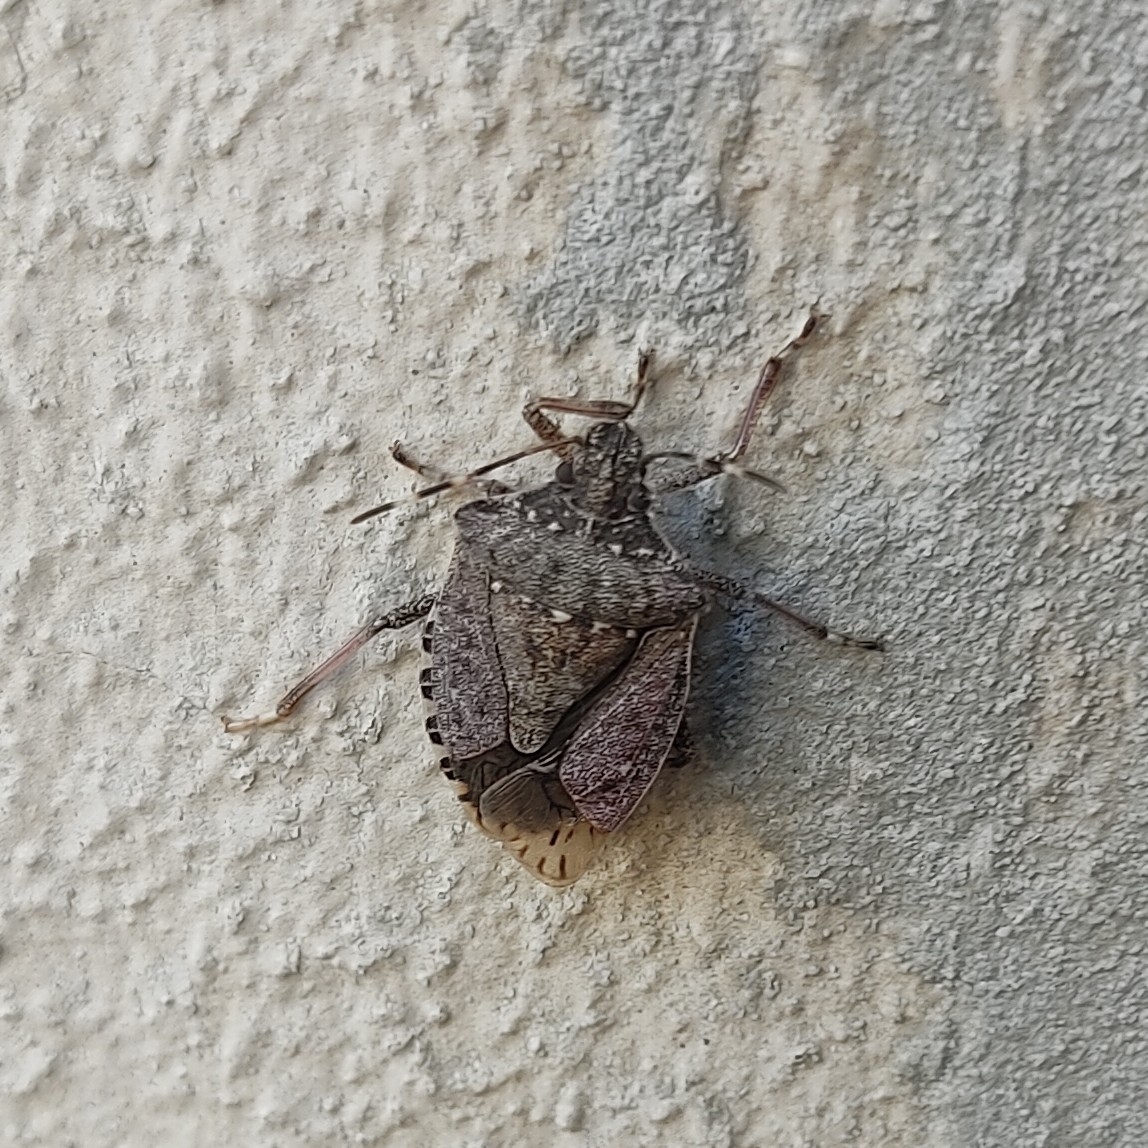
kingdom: Animalia
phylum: Arthropoda
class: Insecta
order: Hemiptera
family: Pentatomidae
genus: Halyomorpha
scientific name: Halyomorpha halys
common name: Brown marmorated stink bug
